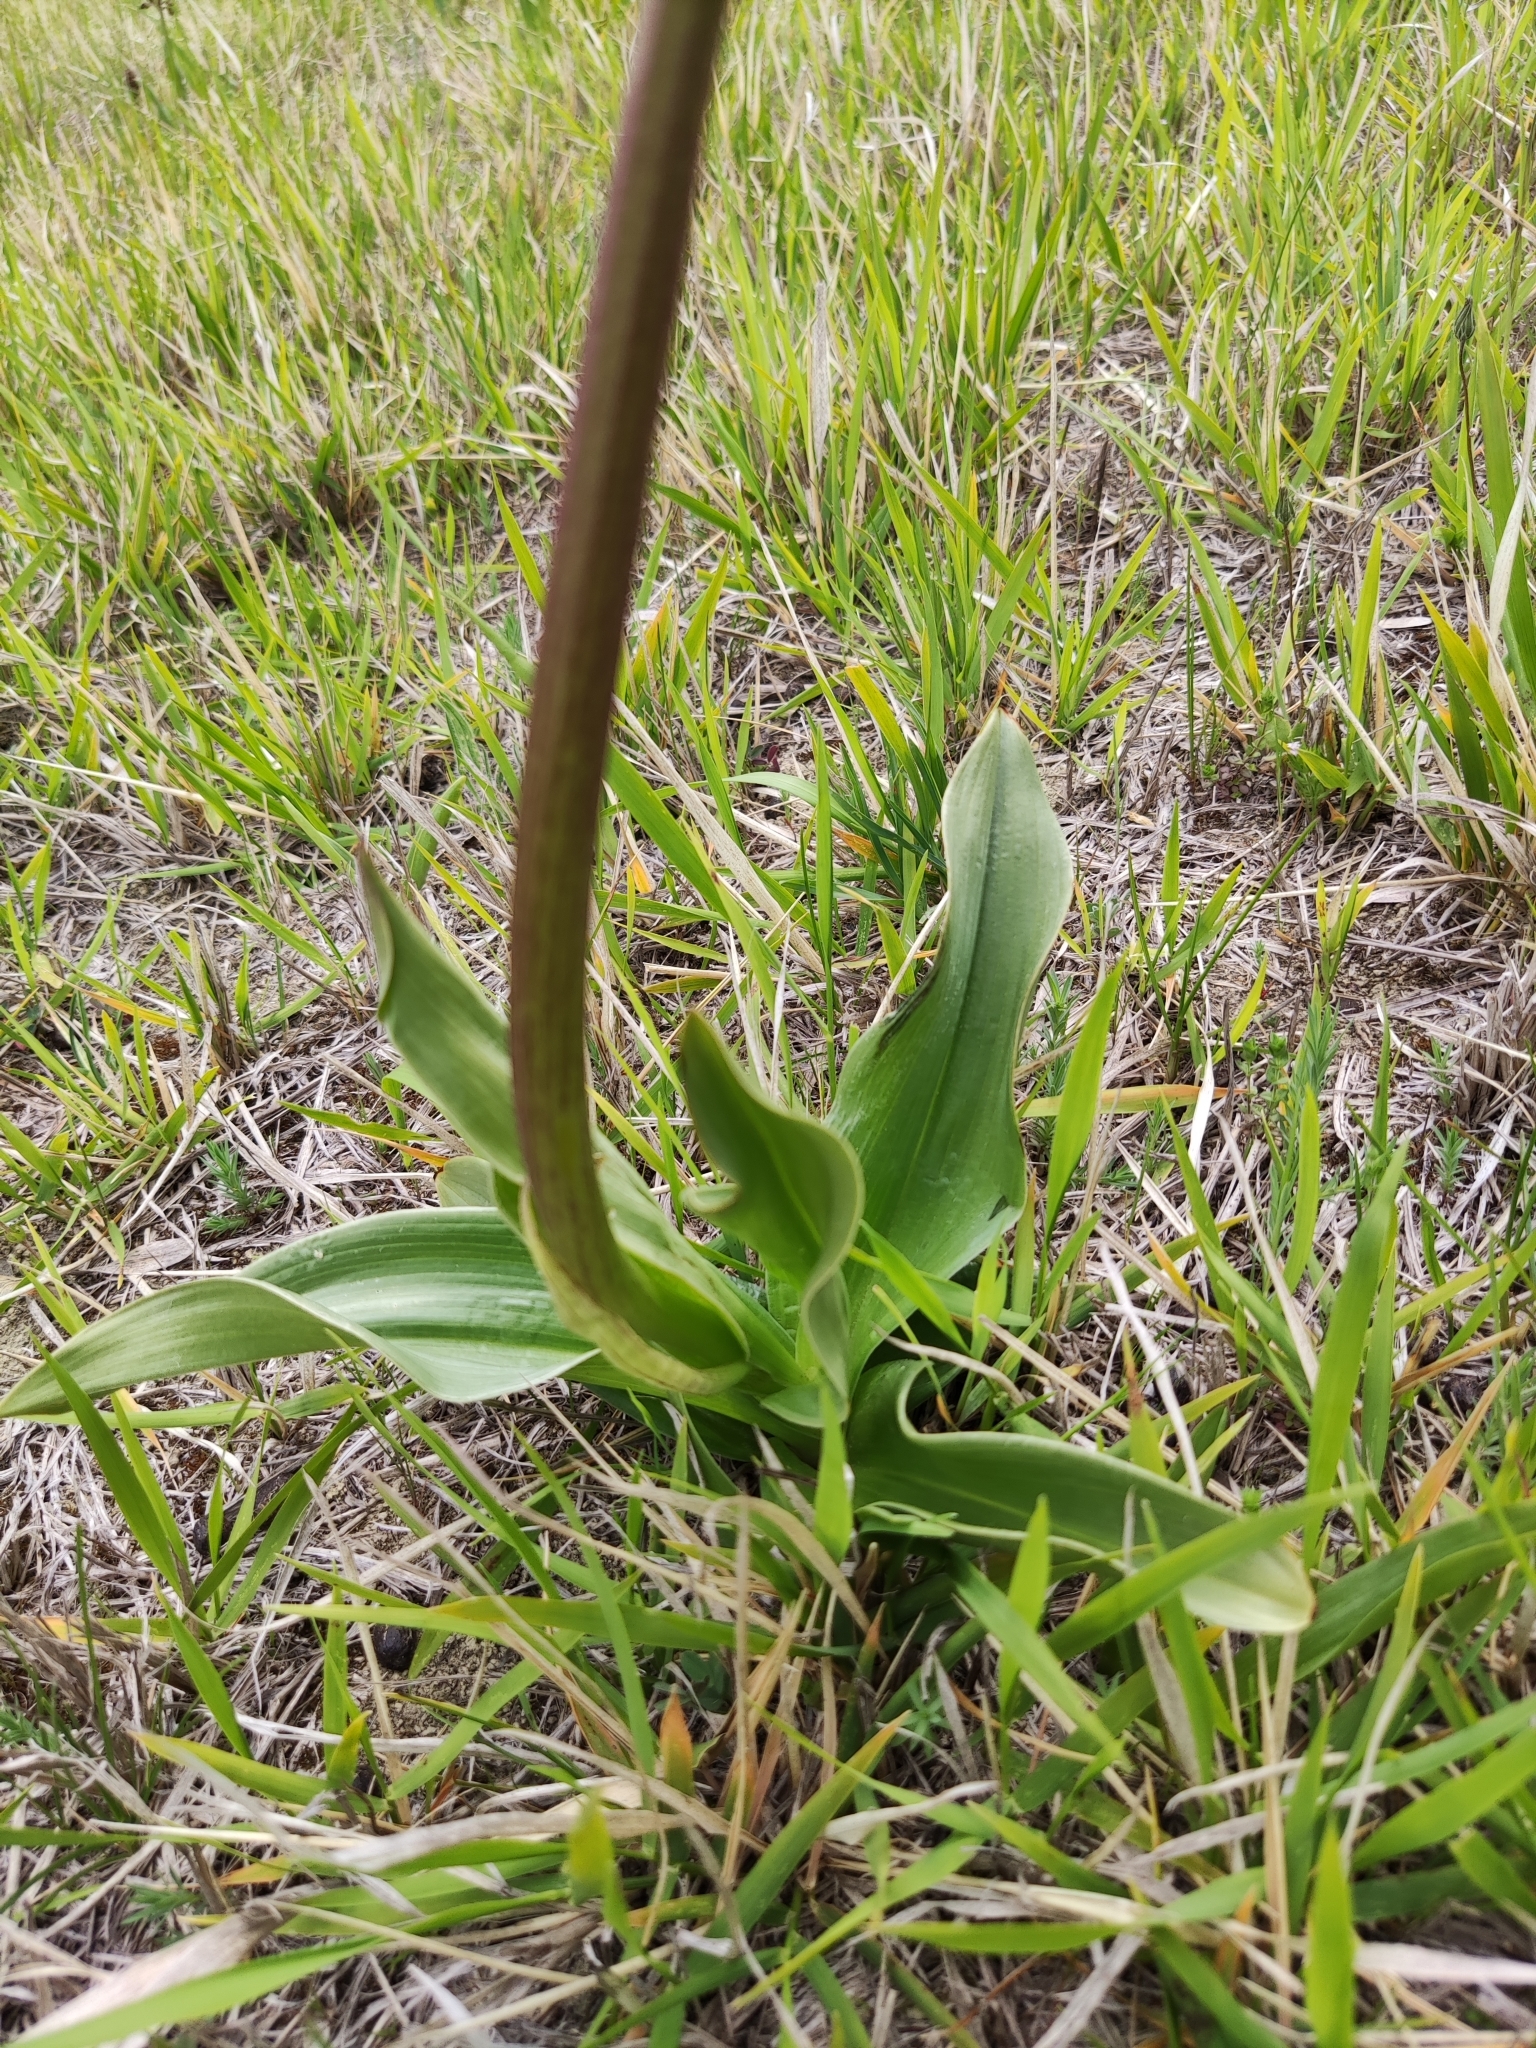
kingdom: Plantae
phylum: Tracheophyta
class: Liliopsida
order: Asparagales
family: Orchidaceae
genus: Orchis
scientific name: Orchis purpurea
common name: Lady orchid
